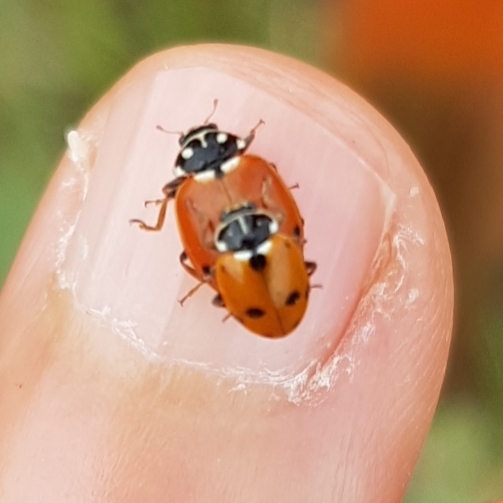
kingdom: Animalia
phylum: Arthropoda
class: Insecta
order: Coleoptera
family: Coccinellidae
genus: Hippodamia
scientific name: Hippodamia variegata
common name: Ladybird beetle
